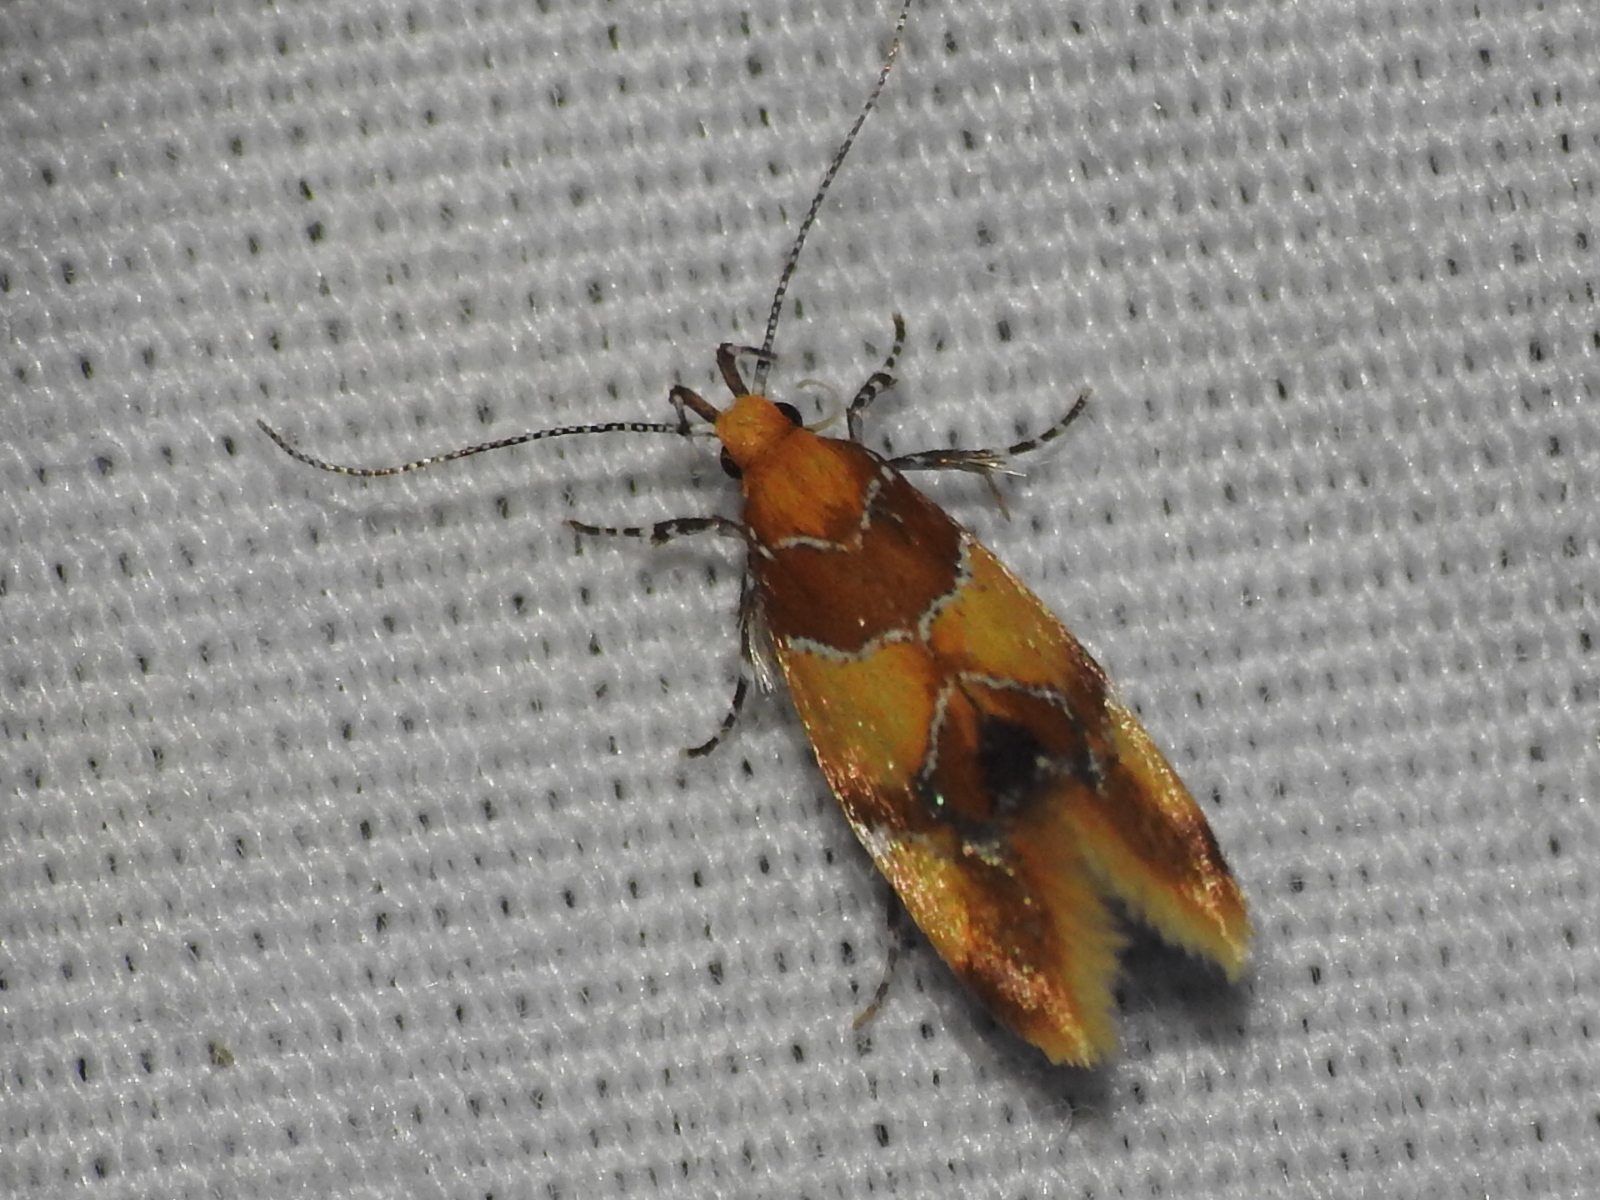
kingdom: Animalia
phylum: Arthropoda
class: Insecta
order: Lepidoptera
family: Oecophoridae
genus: Callima
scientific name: Callima argenticinctella
